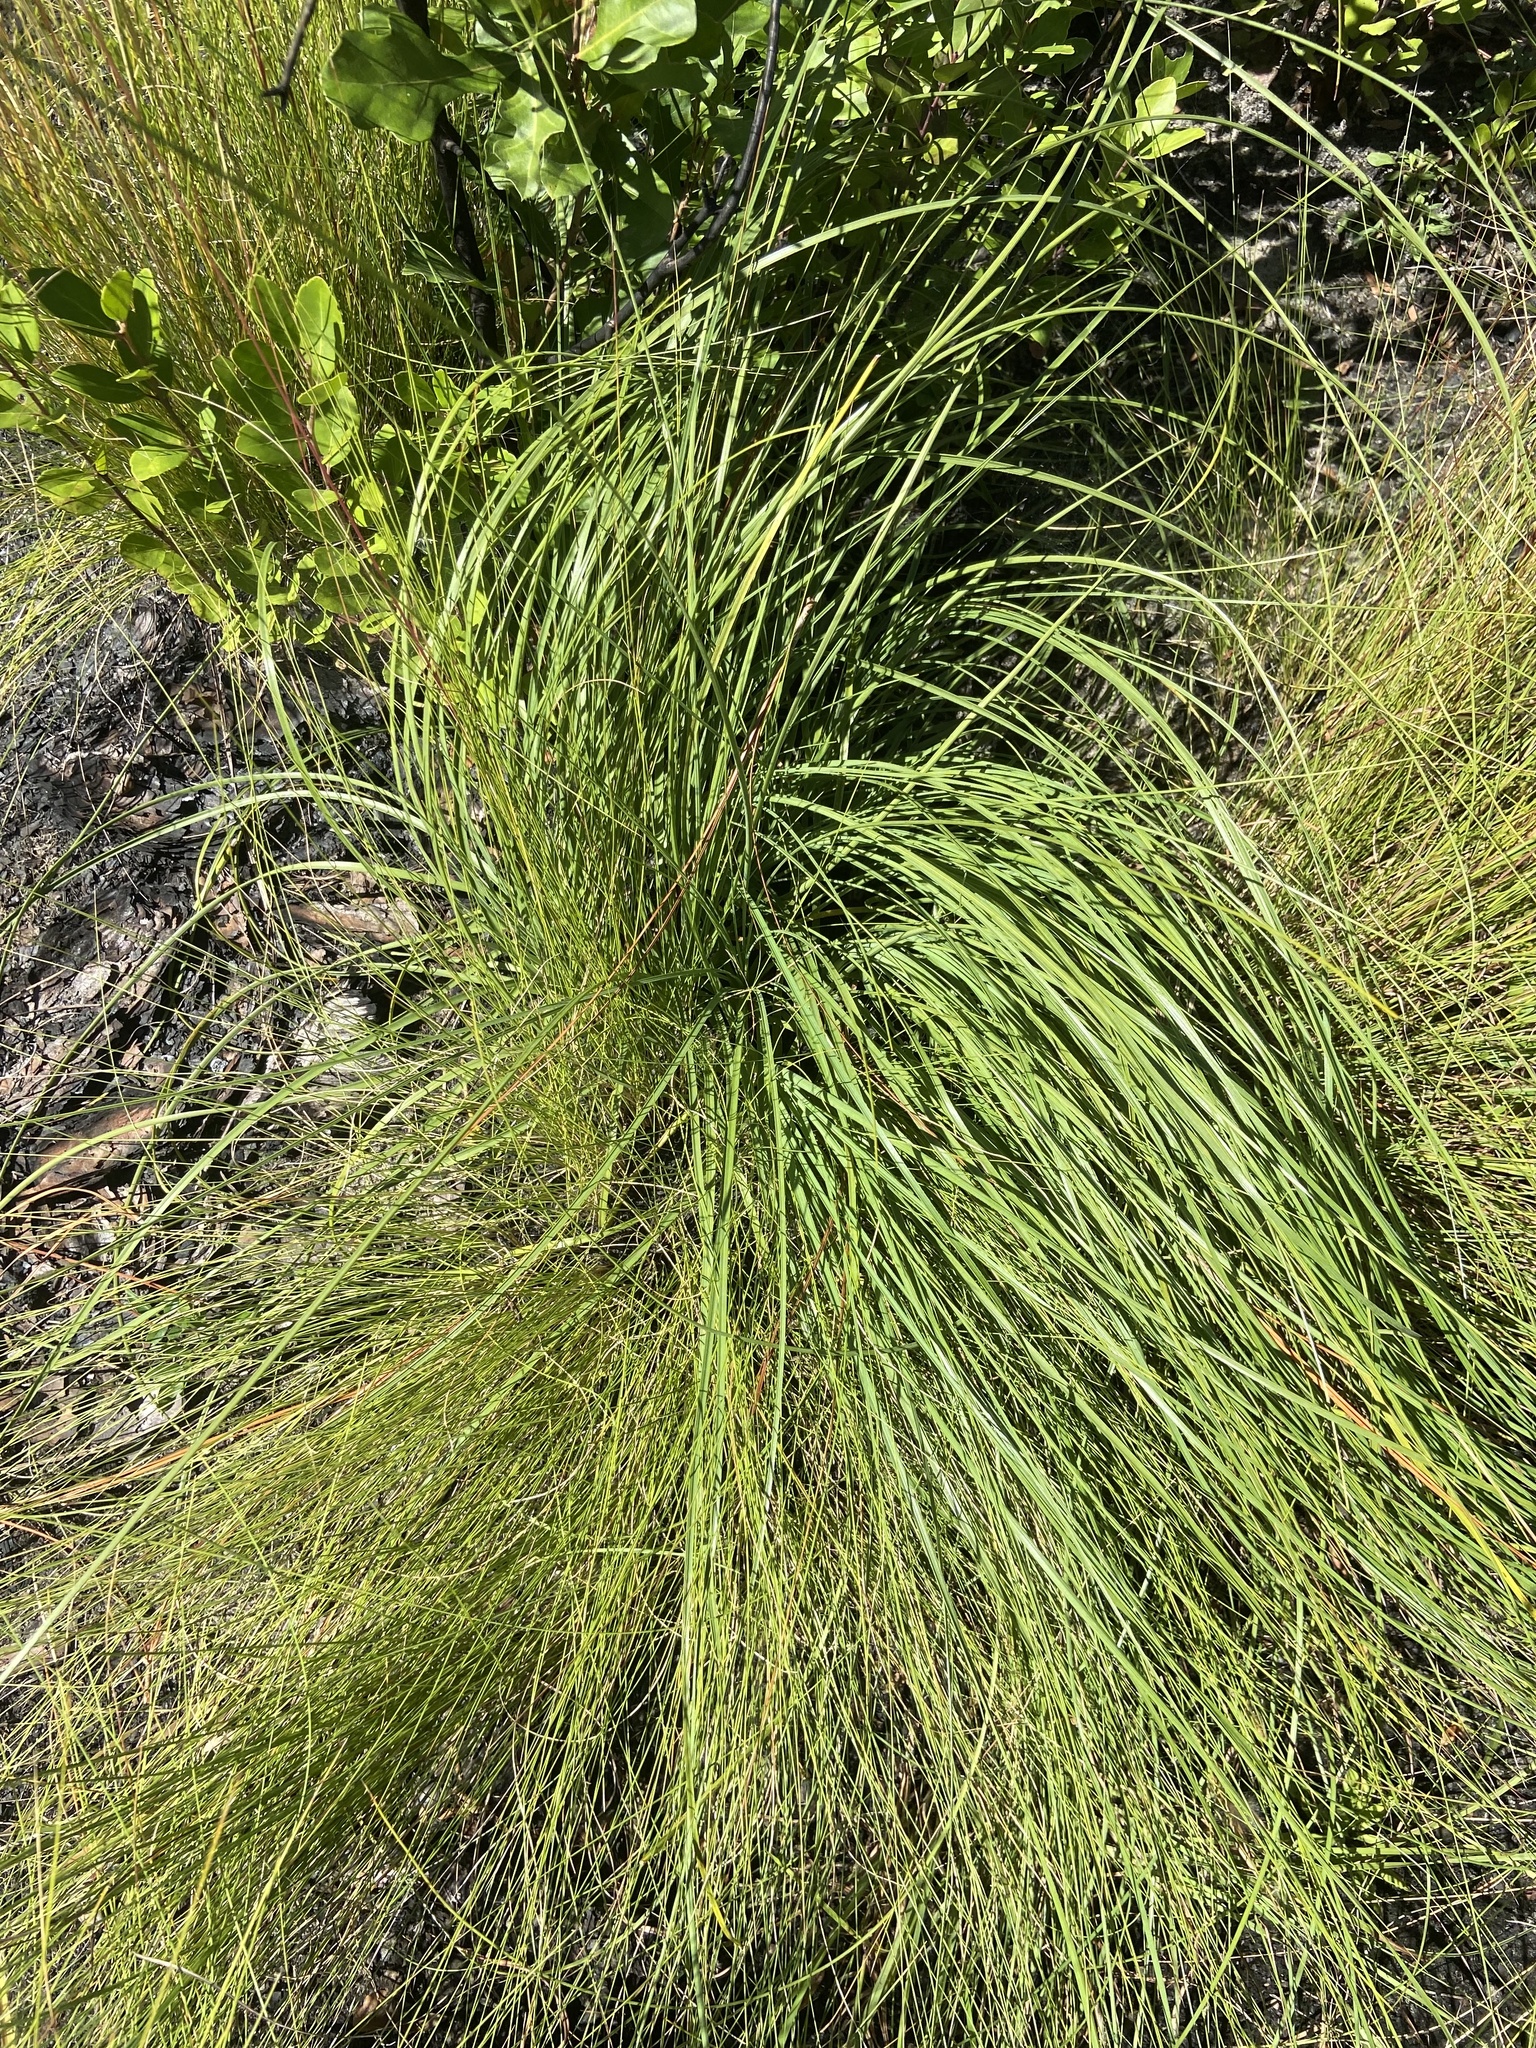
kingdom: Plantae
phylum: Tracheophyta
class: Liliopsida
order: Asparagales
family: Asparagaceae
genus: Nolina
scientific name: Nolina georgiana
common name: Georgia bear-grass
